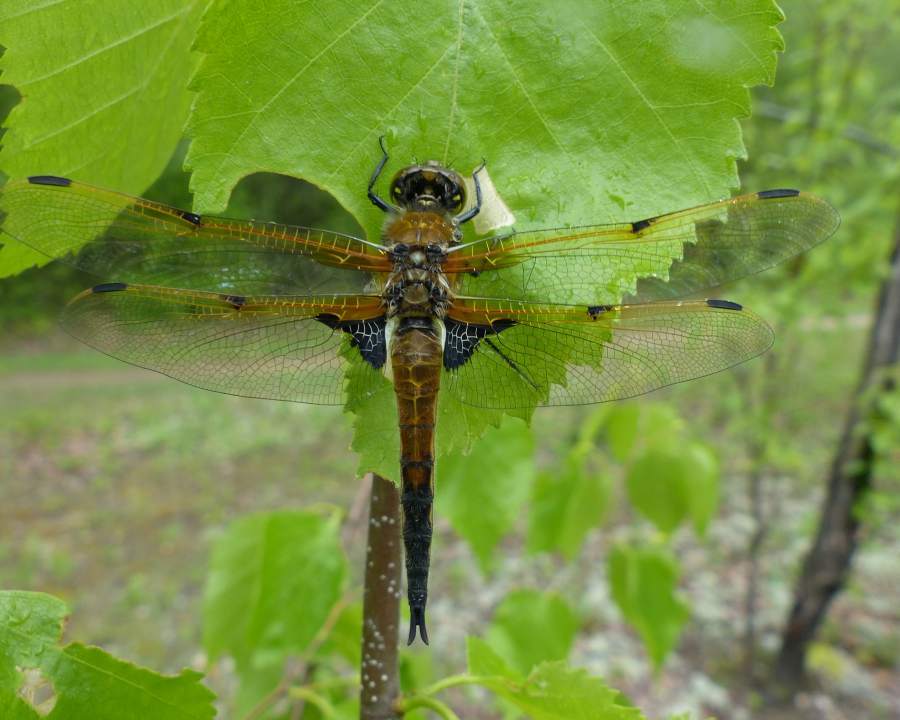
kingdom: Animalia
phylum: Arthropoda
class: Insecta
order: Odonata
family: Libellulidae
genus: Libellula
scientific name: Libellula quadrimaculata
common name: Four-spotted chaser
